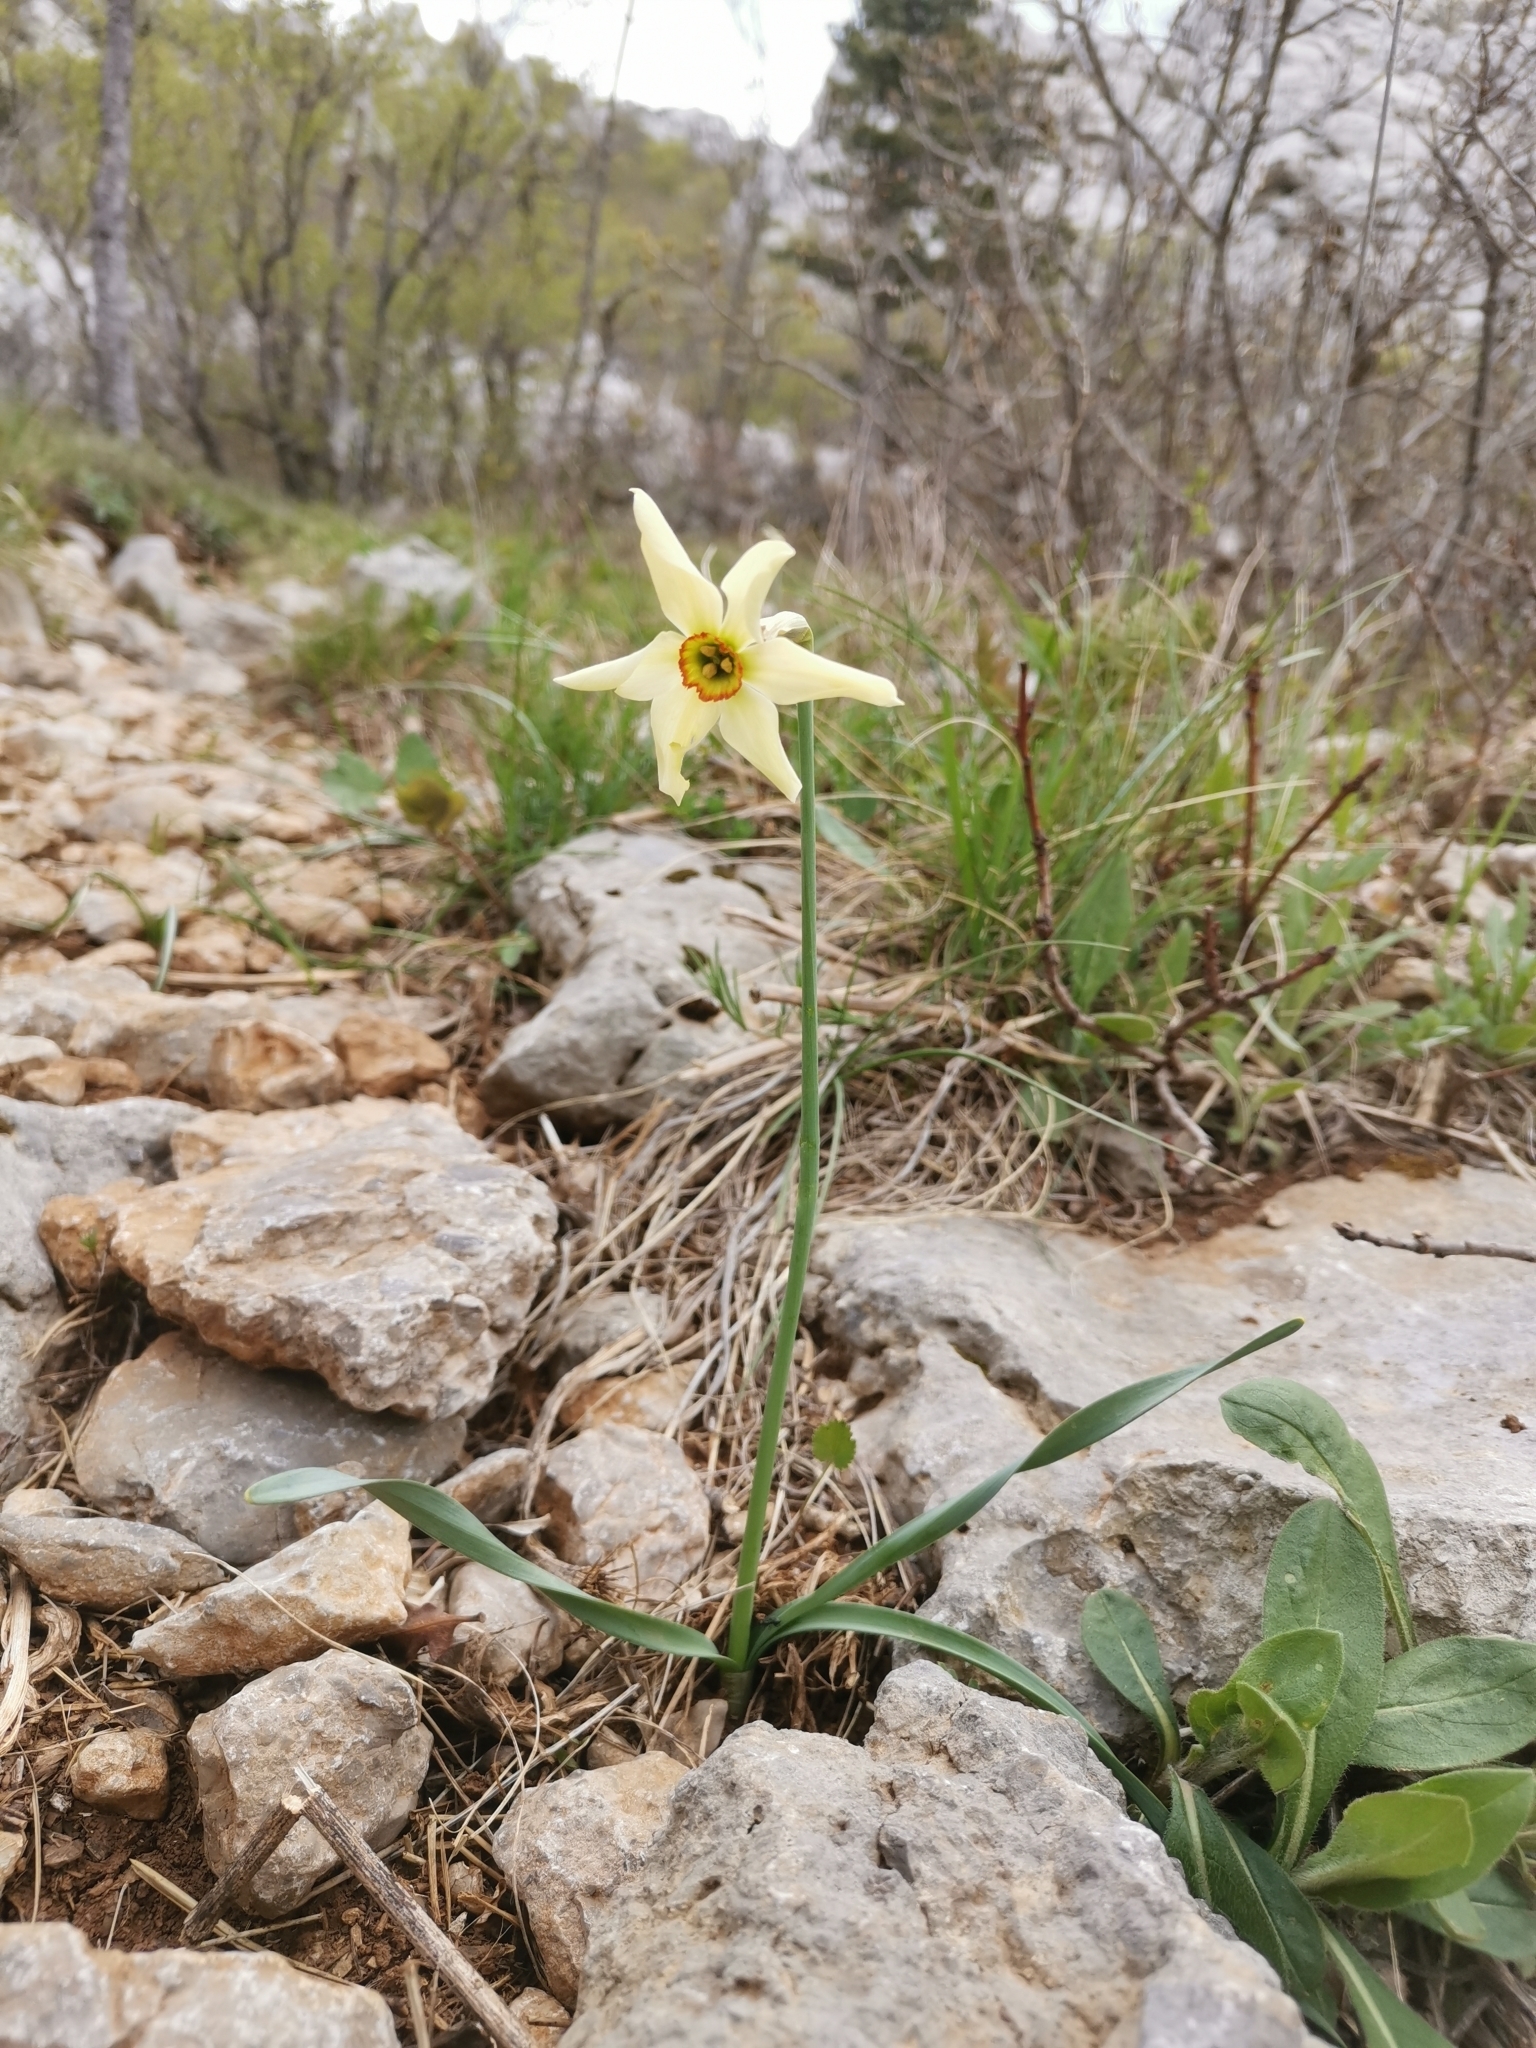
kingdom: Plantae
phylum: Tracheophyta
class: Liliopsida
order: Asparagales
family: Amaryllidaceae
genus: Narcissus
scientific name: Narcissus poeticus
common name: Pheasant's-eye daffodil
